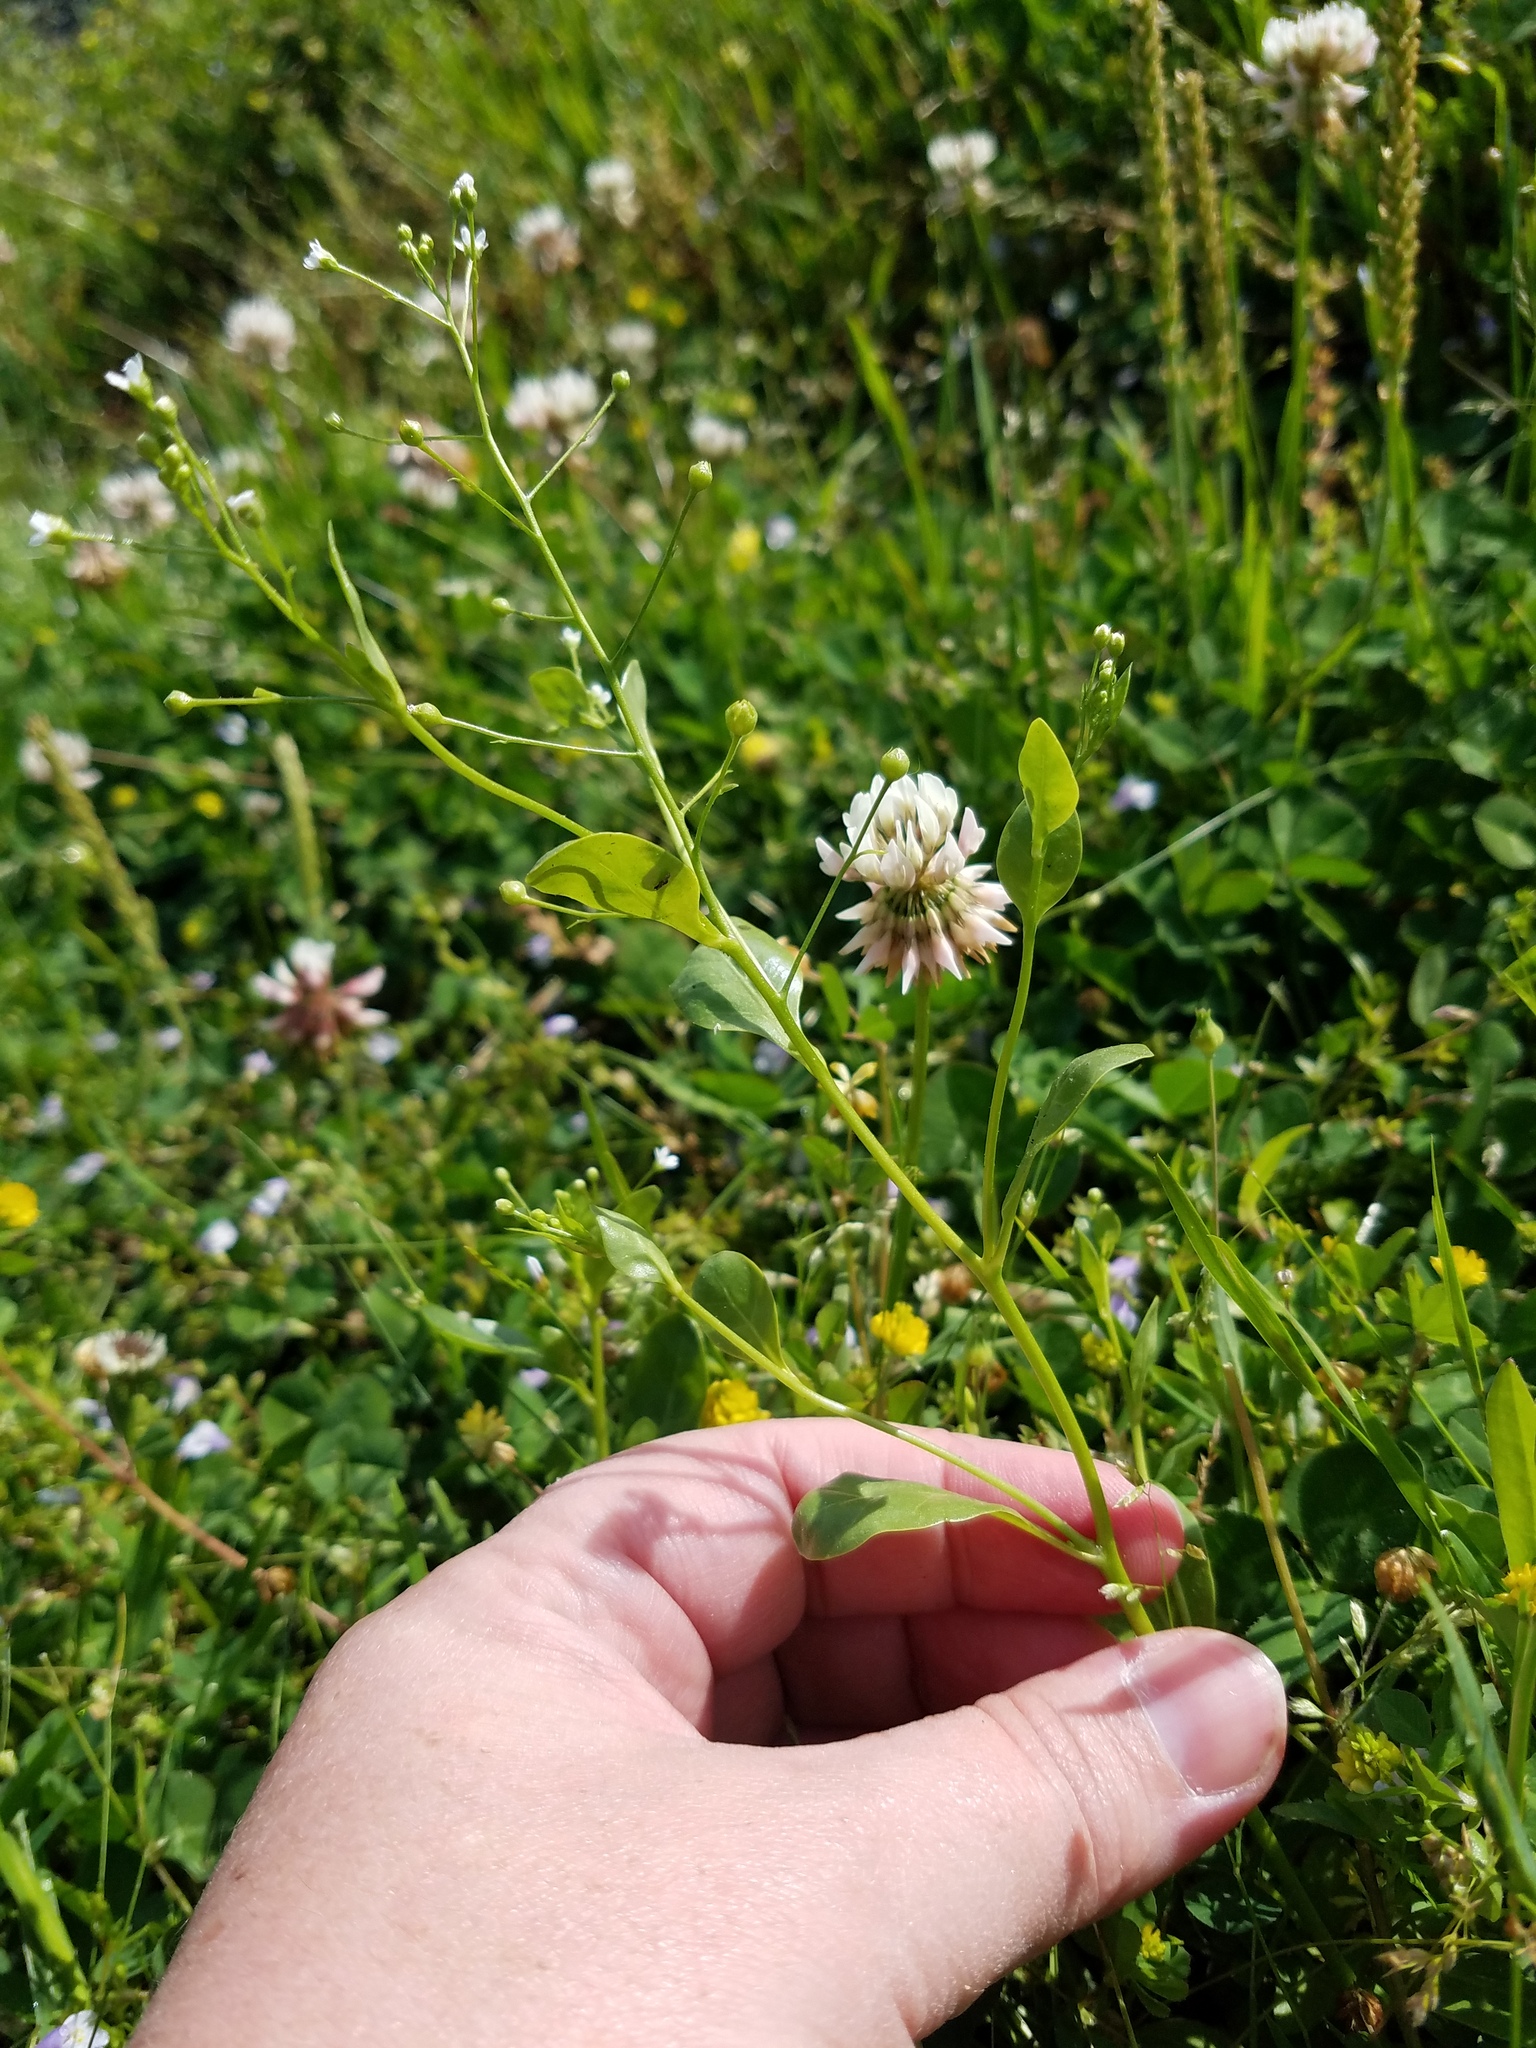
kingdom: Plantae
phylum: Tracheophyta
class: Magnoliopsida
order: Ericales
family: Primulaceae
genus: Samolus
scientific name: Samolus parviflorus
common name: False water pimpernel
